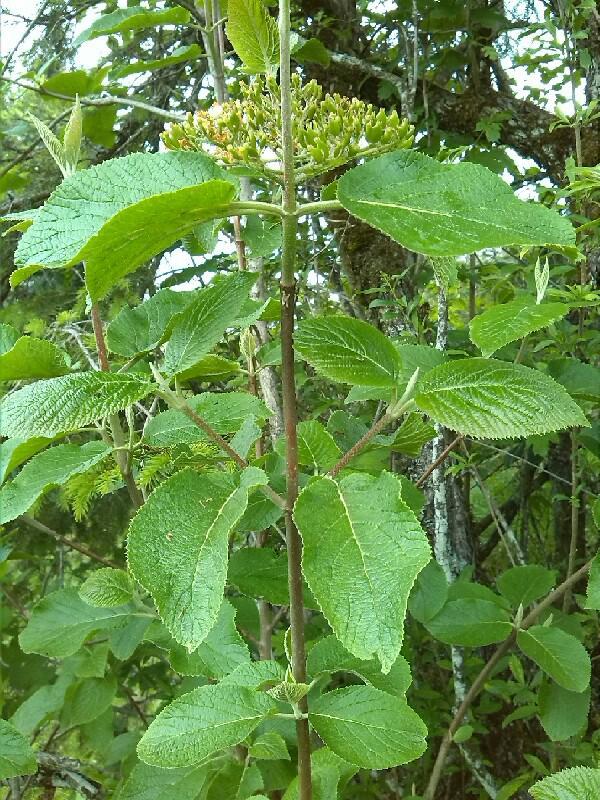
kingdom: Plantae
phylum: Tracheophyta
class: Magnoliopsida
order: Dipsacales
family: Viburnaceae
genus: Viburnum
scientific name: Viburnum lantana
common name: Wayfaring tree
